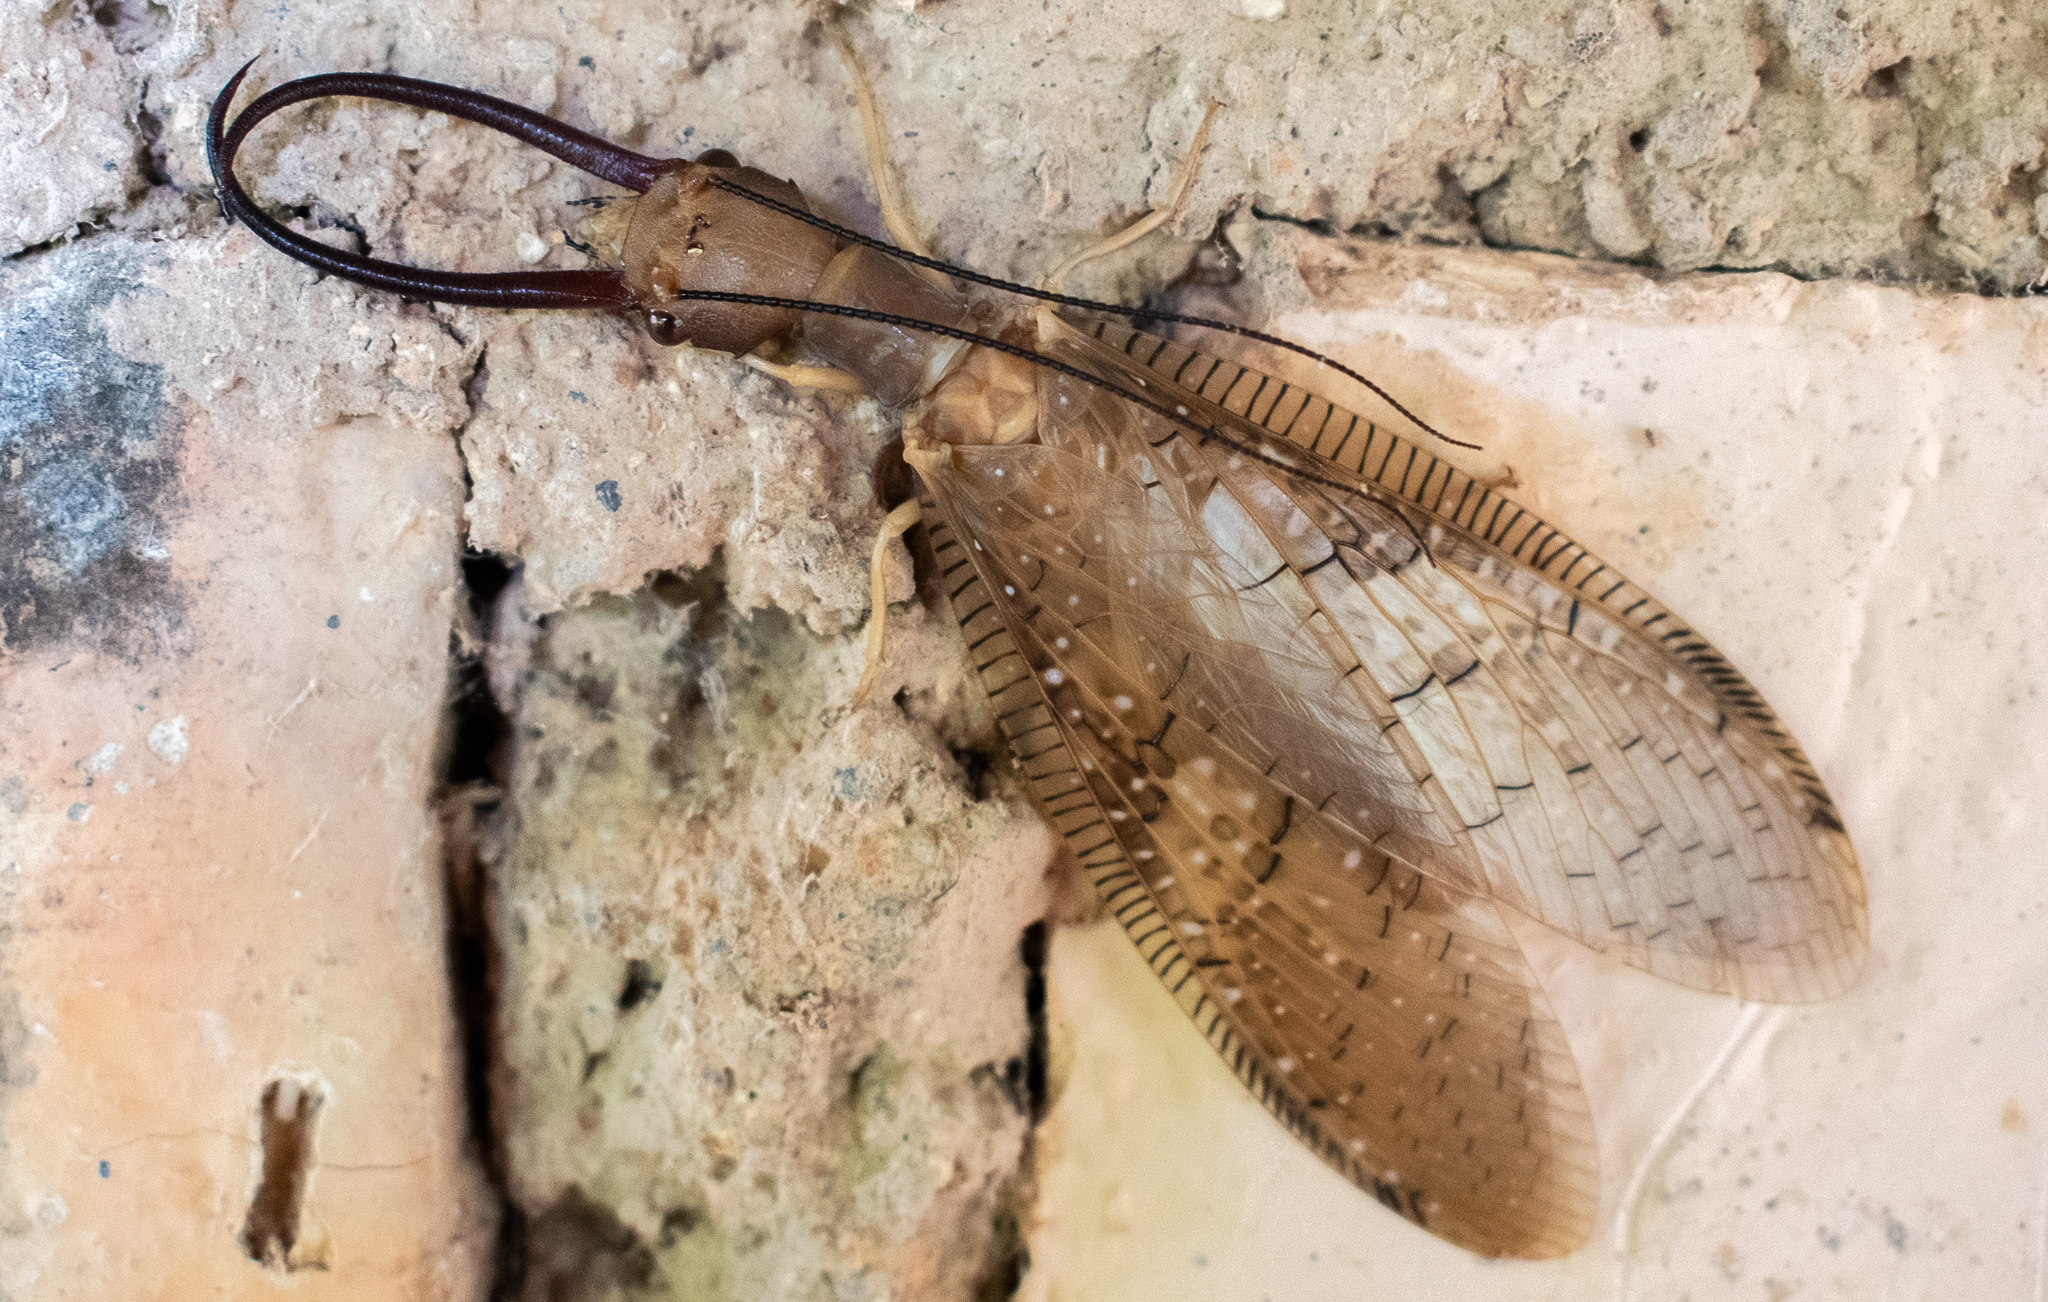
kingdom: Animalia
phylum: Arthropoda
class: Insecta
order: Megaloptera
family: Corydalidae
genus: Corydalus
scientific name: Corydalus affinis
